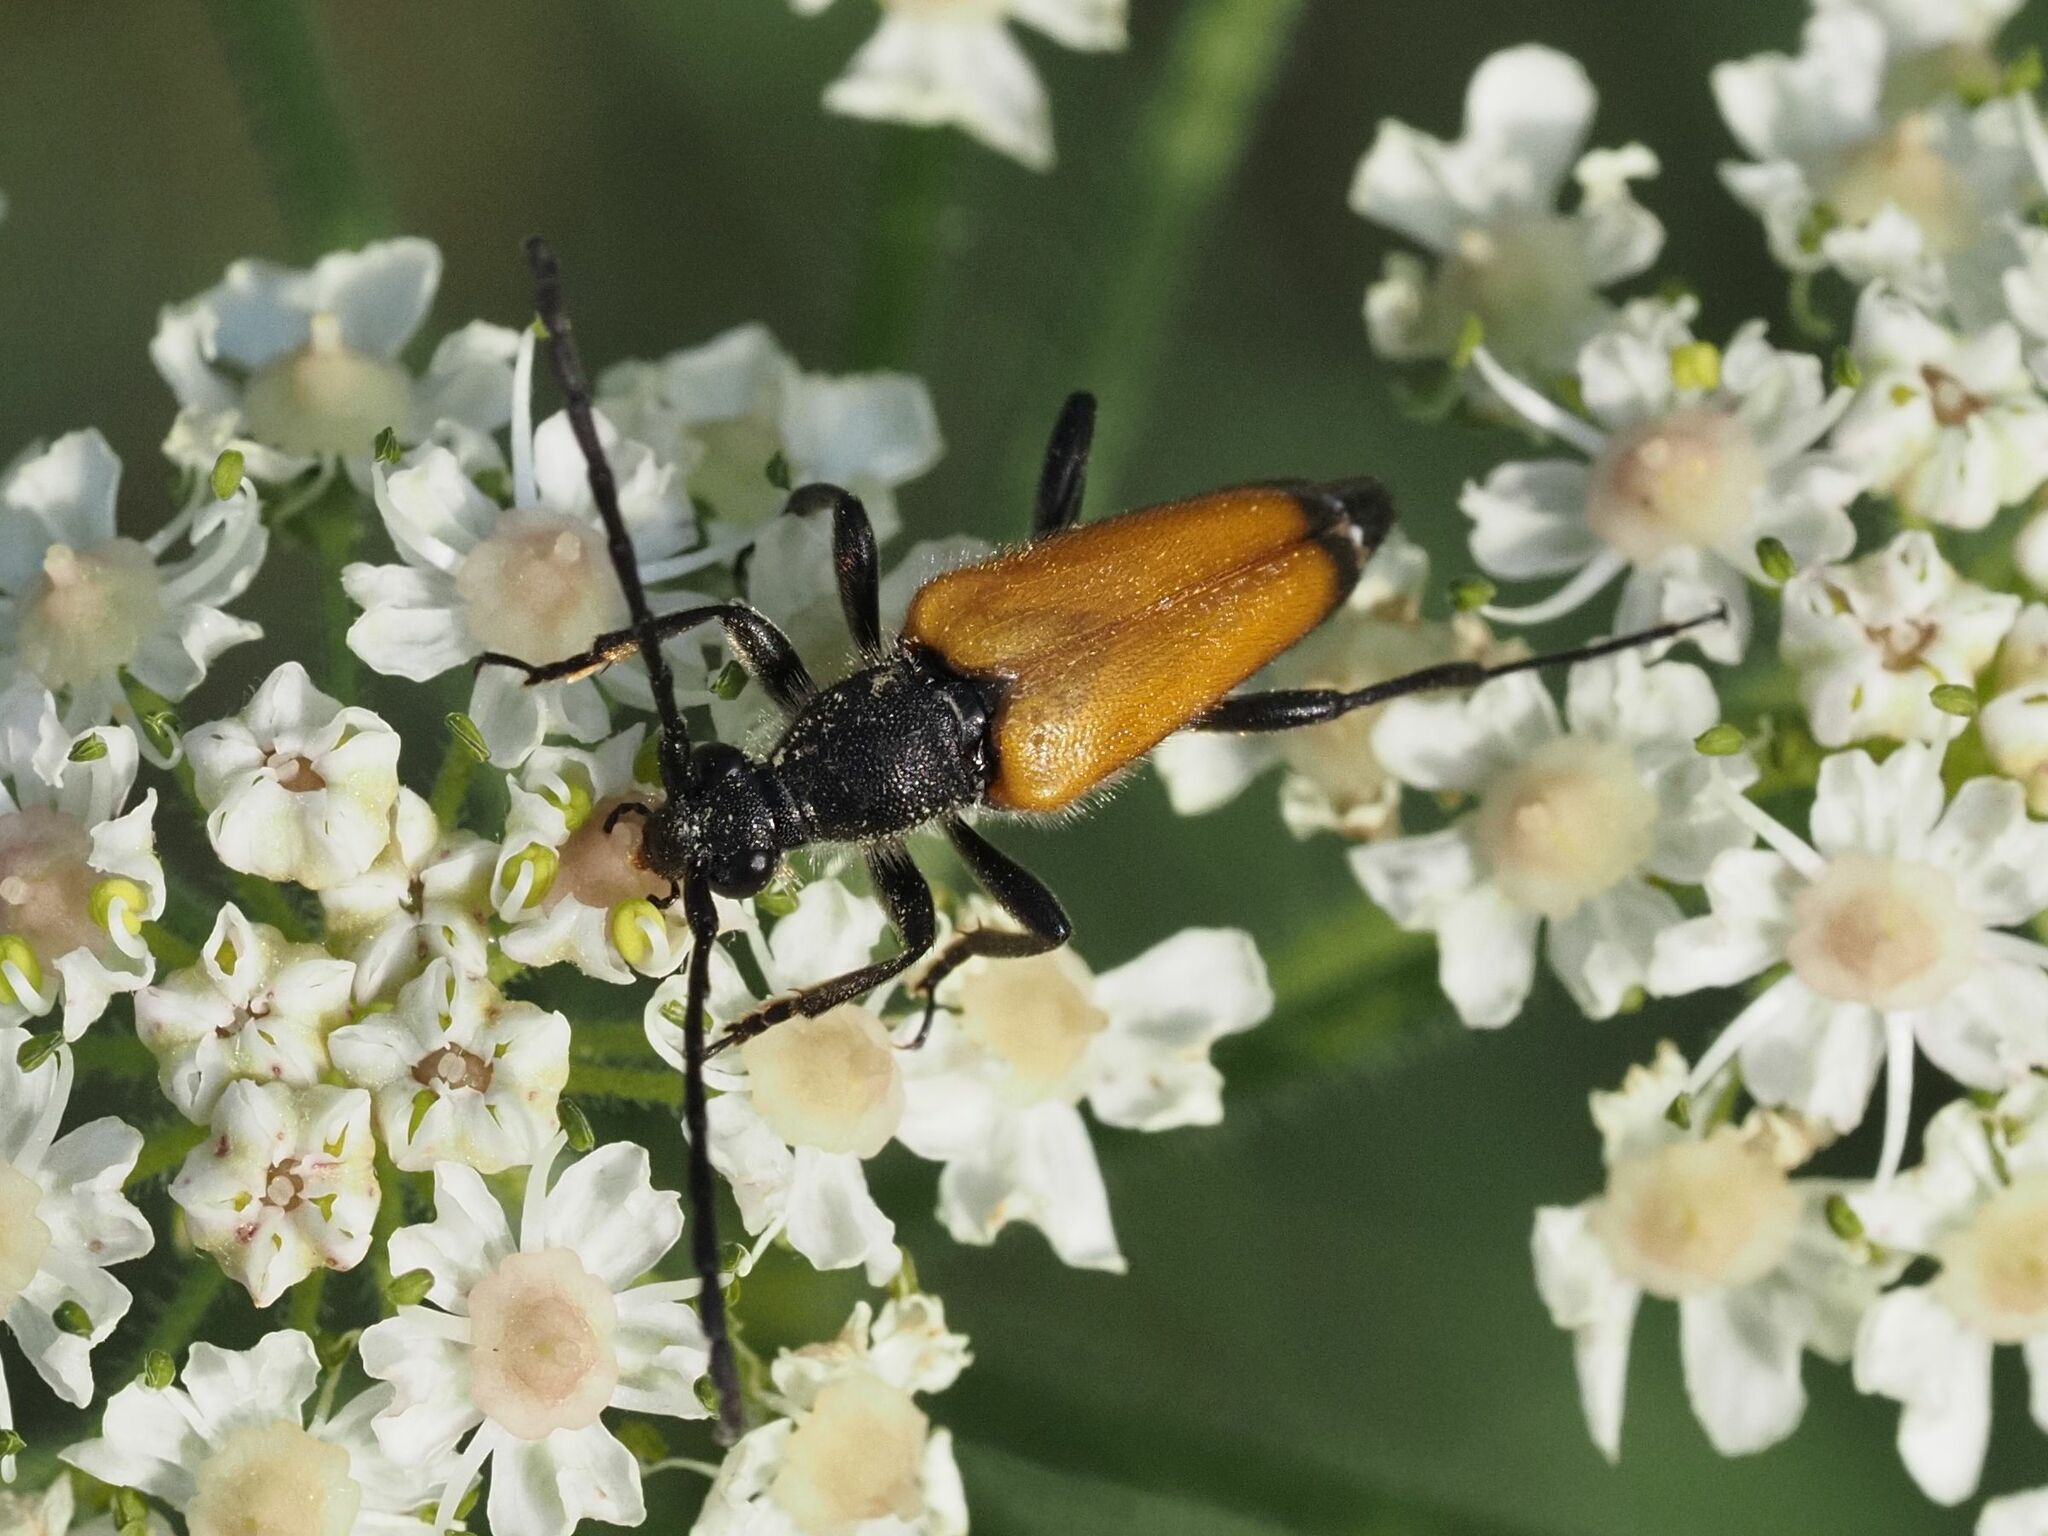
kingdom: Animalia
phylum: Arthropoda
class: Insecta
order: Coleoptera
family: Cerambycidae
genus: Paracorymbia
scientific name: Paracorymbia fulva
